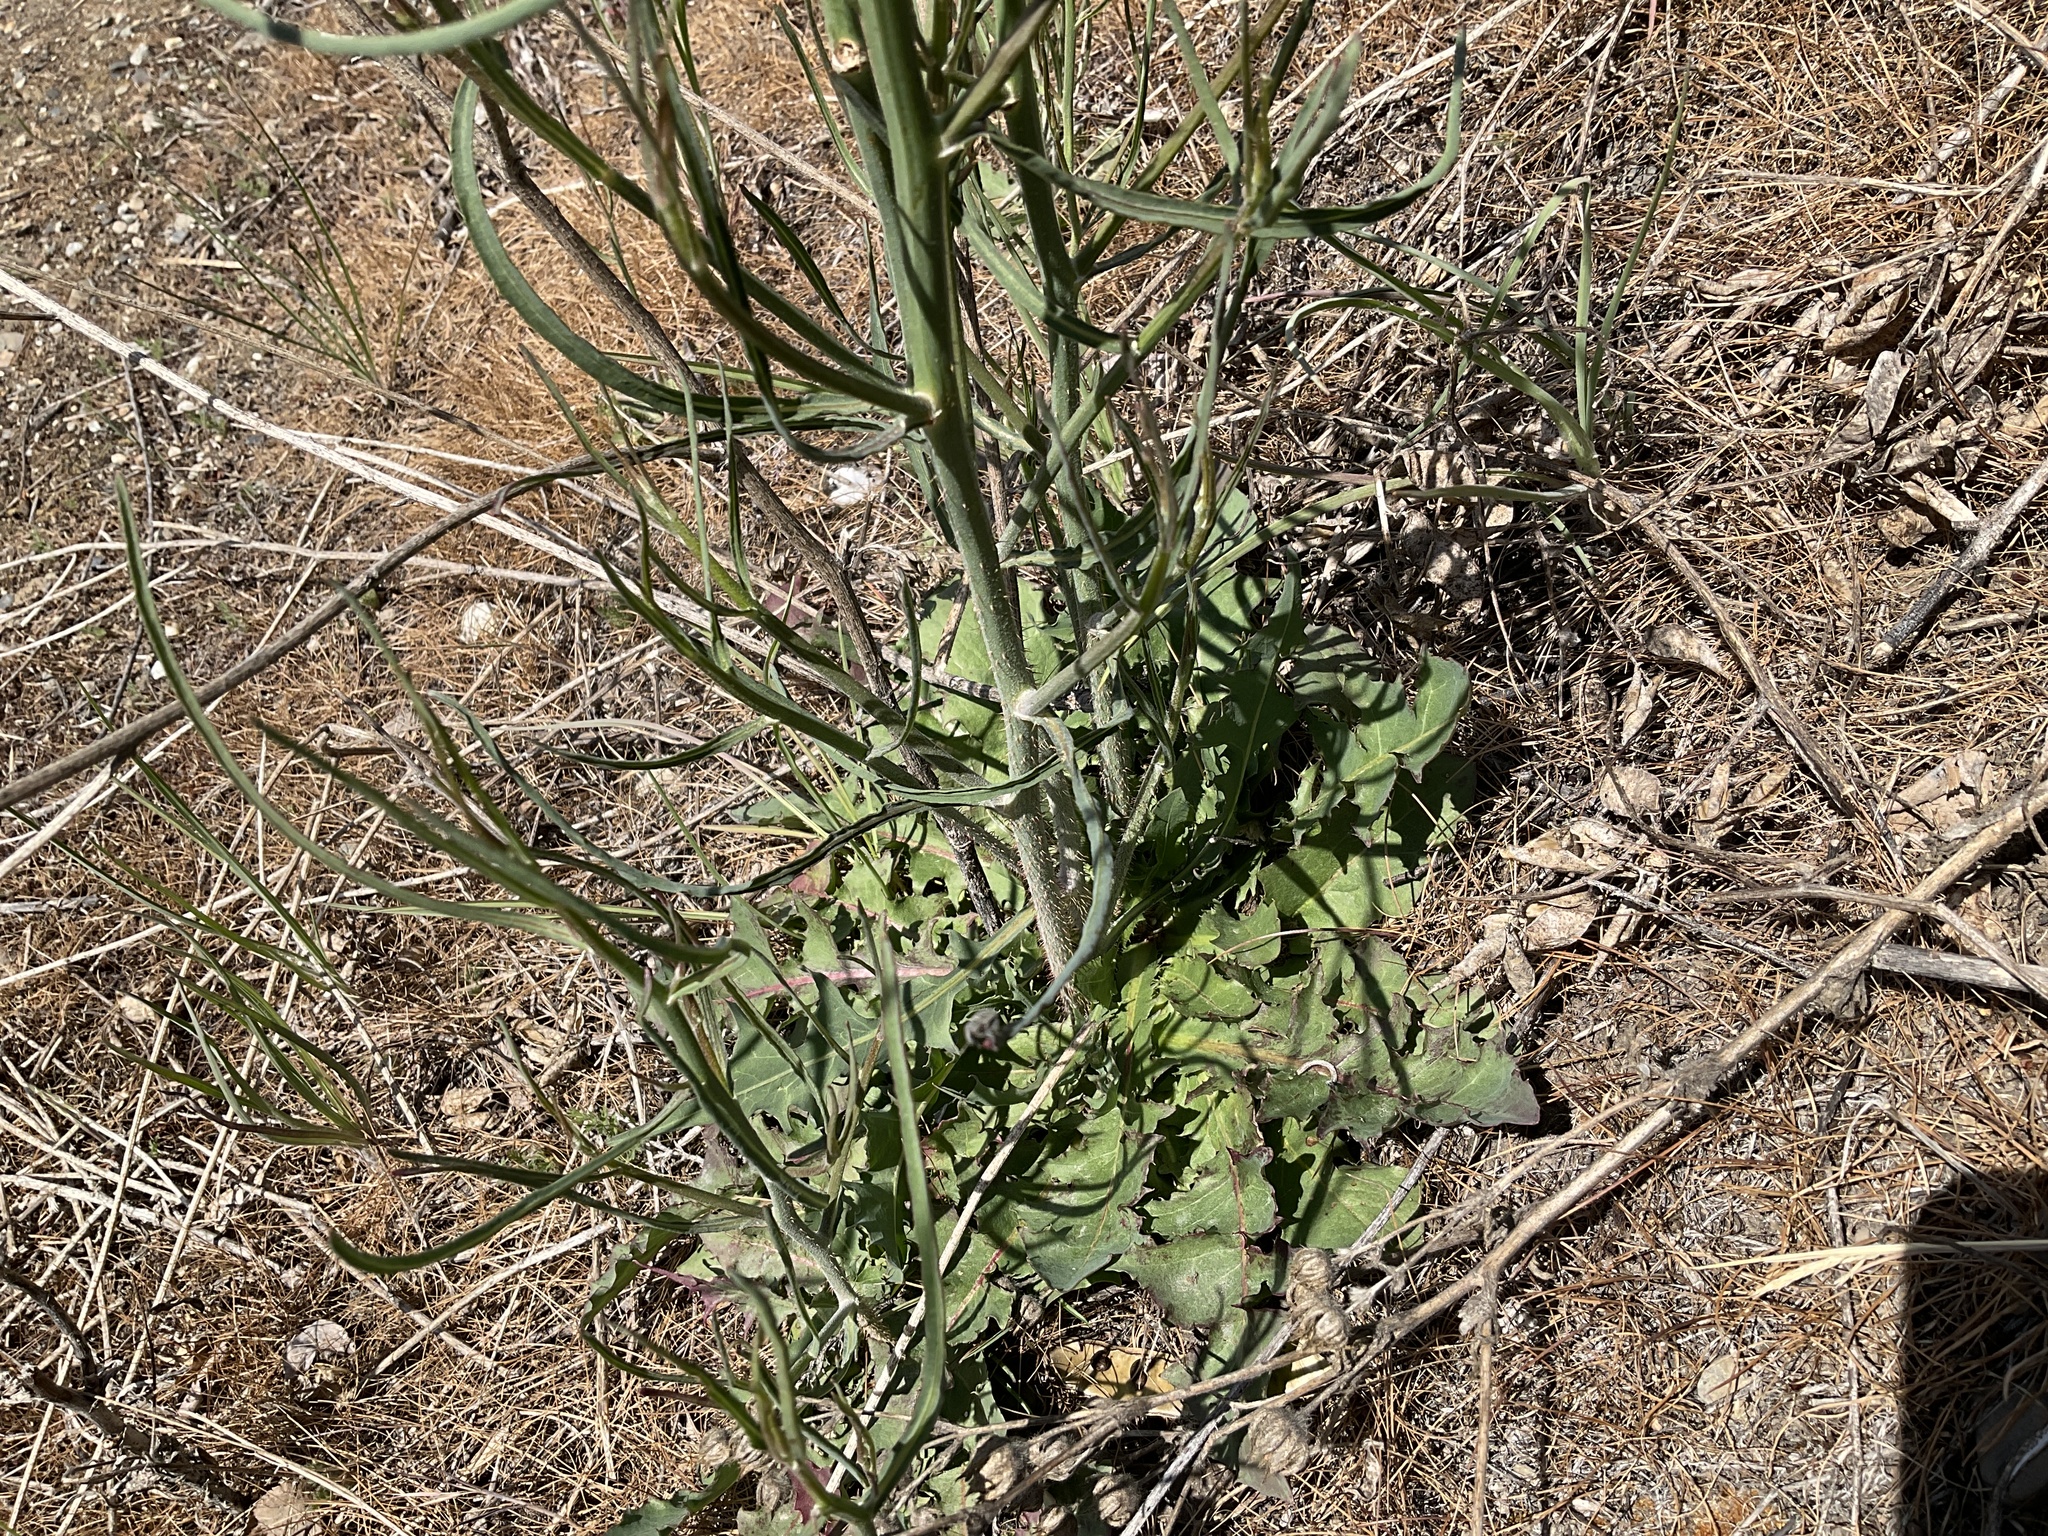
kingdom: Plantae
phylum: Tracheophyta
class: Magnoliopsida
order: Asterales
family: Asteraceae
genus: Chondrilla
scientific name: Chondrilla juncea
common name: Skeleton weed
